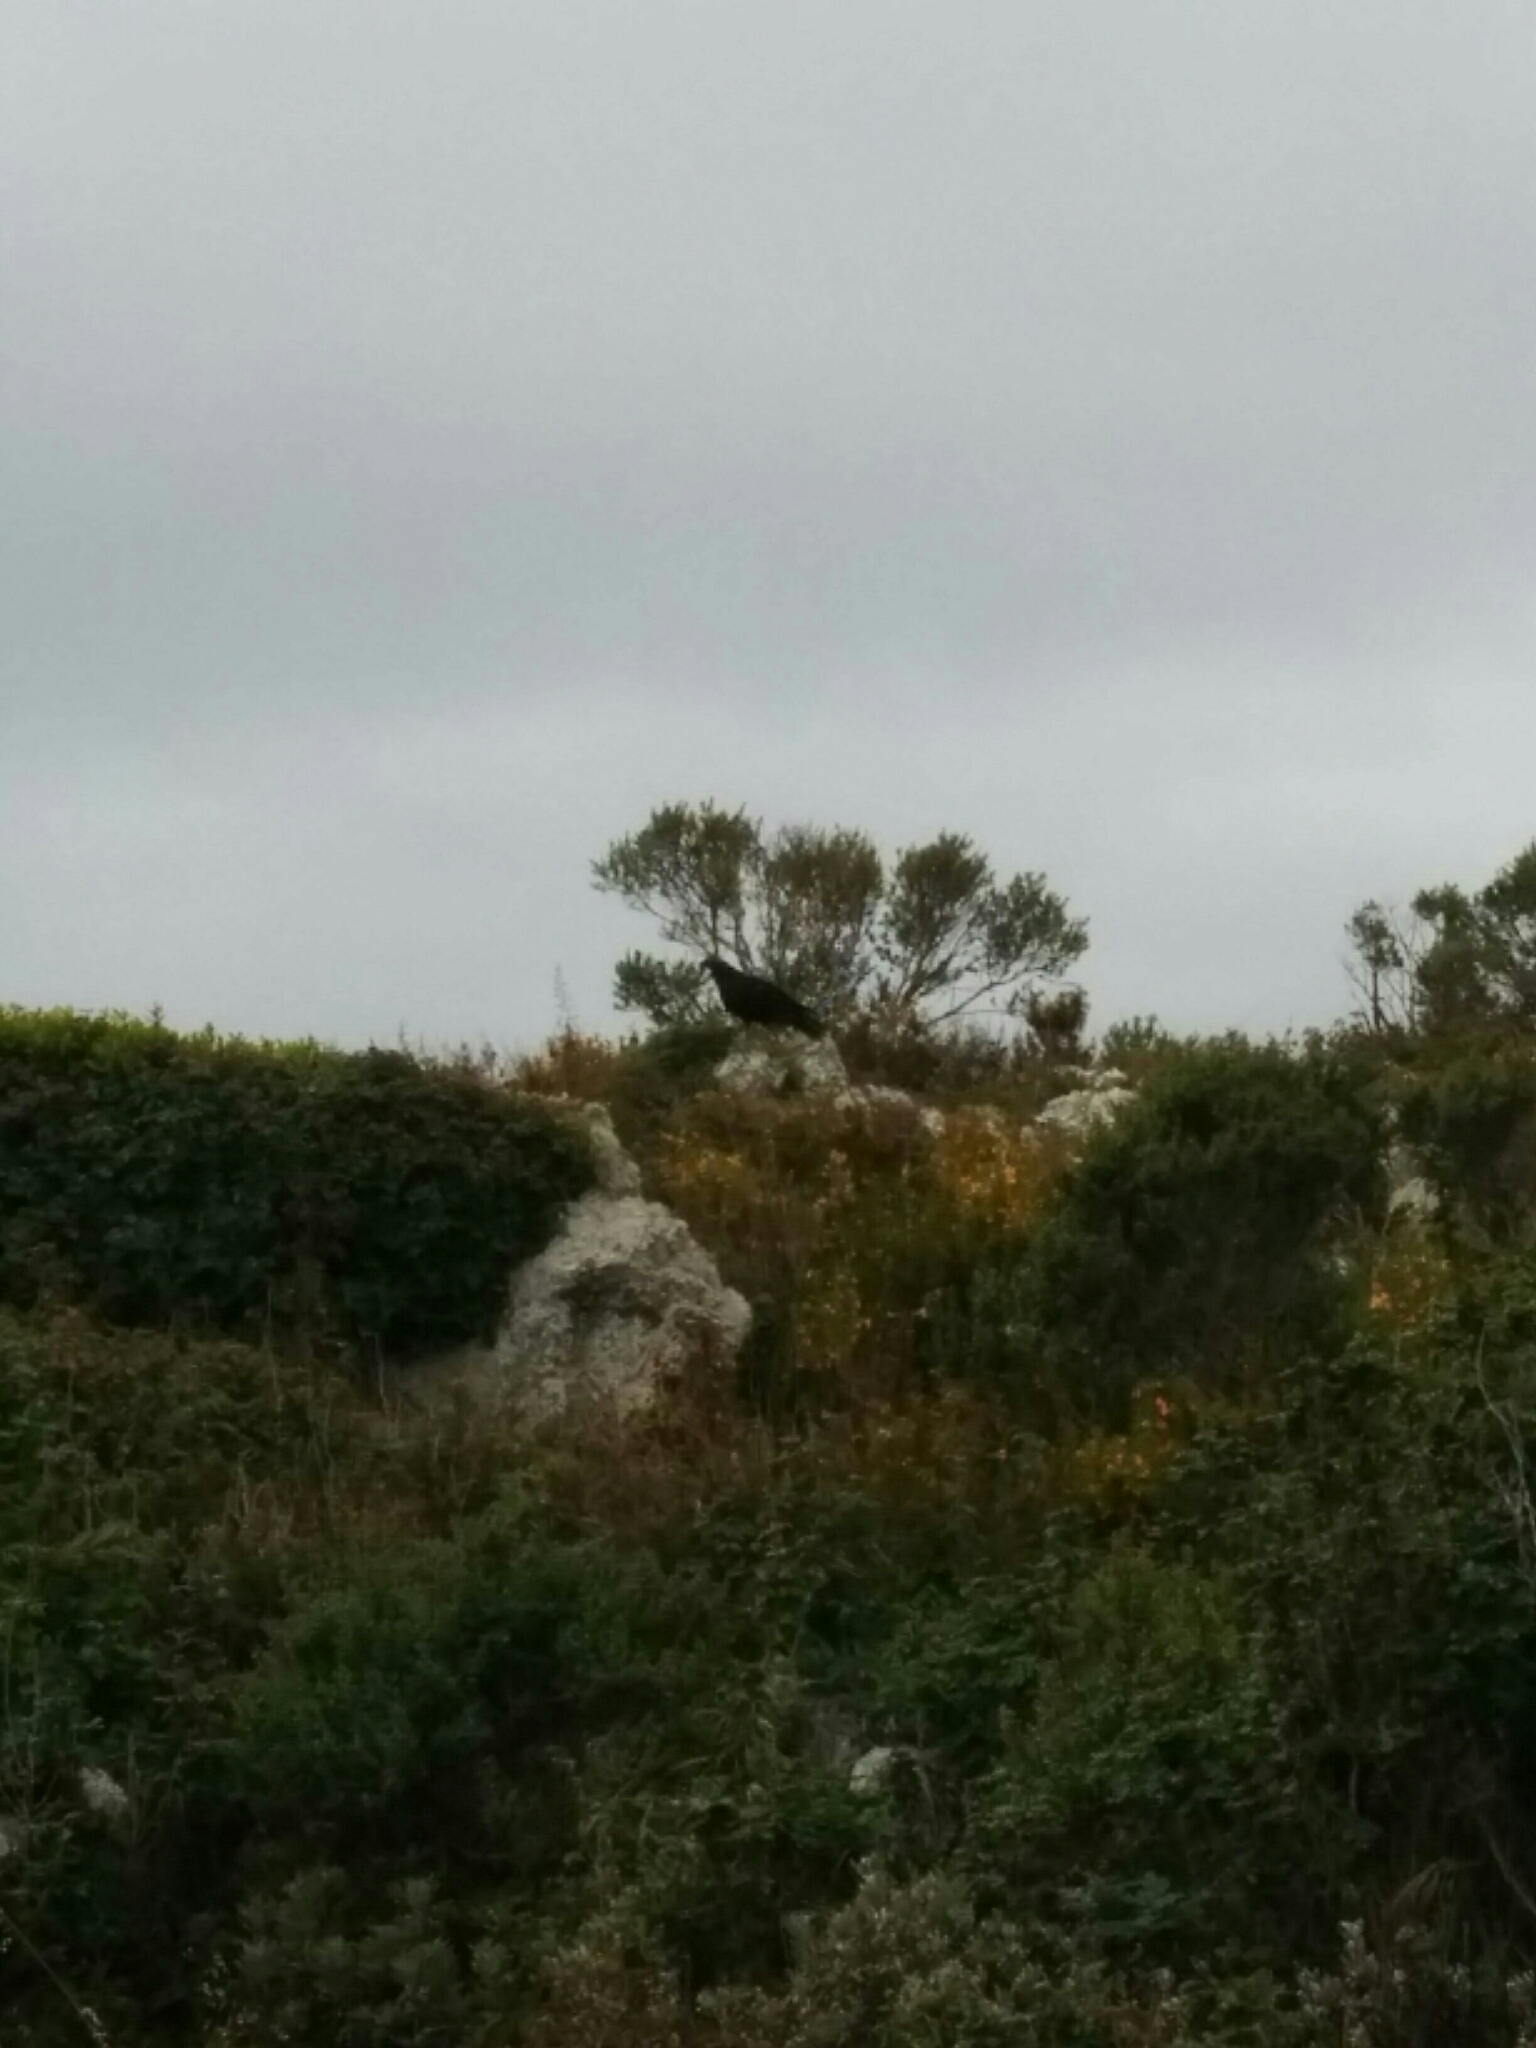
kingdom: Animalia
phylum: Chordata
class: Aves
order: Accipitriformes
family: Cathartidae
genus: Cathartes
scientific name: Cathartes aura
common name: Turkey vulture
